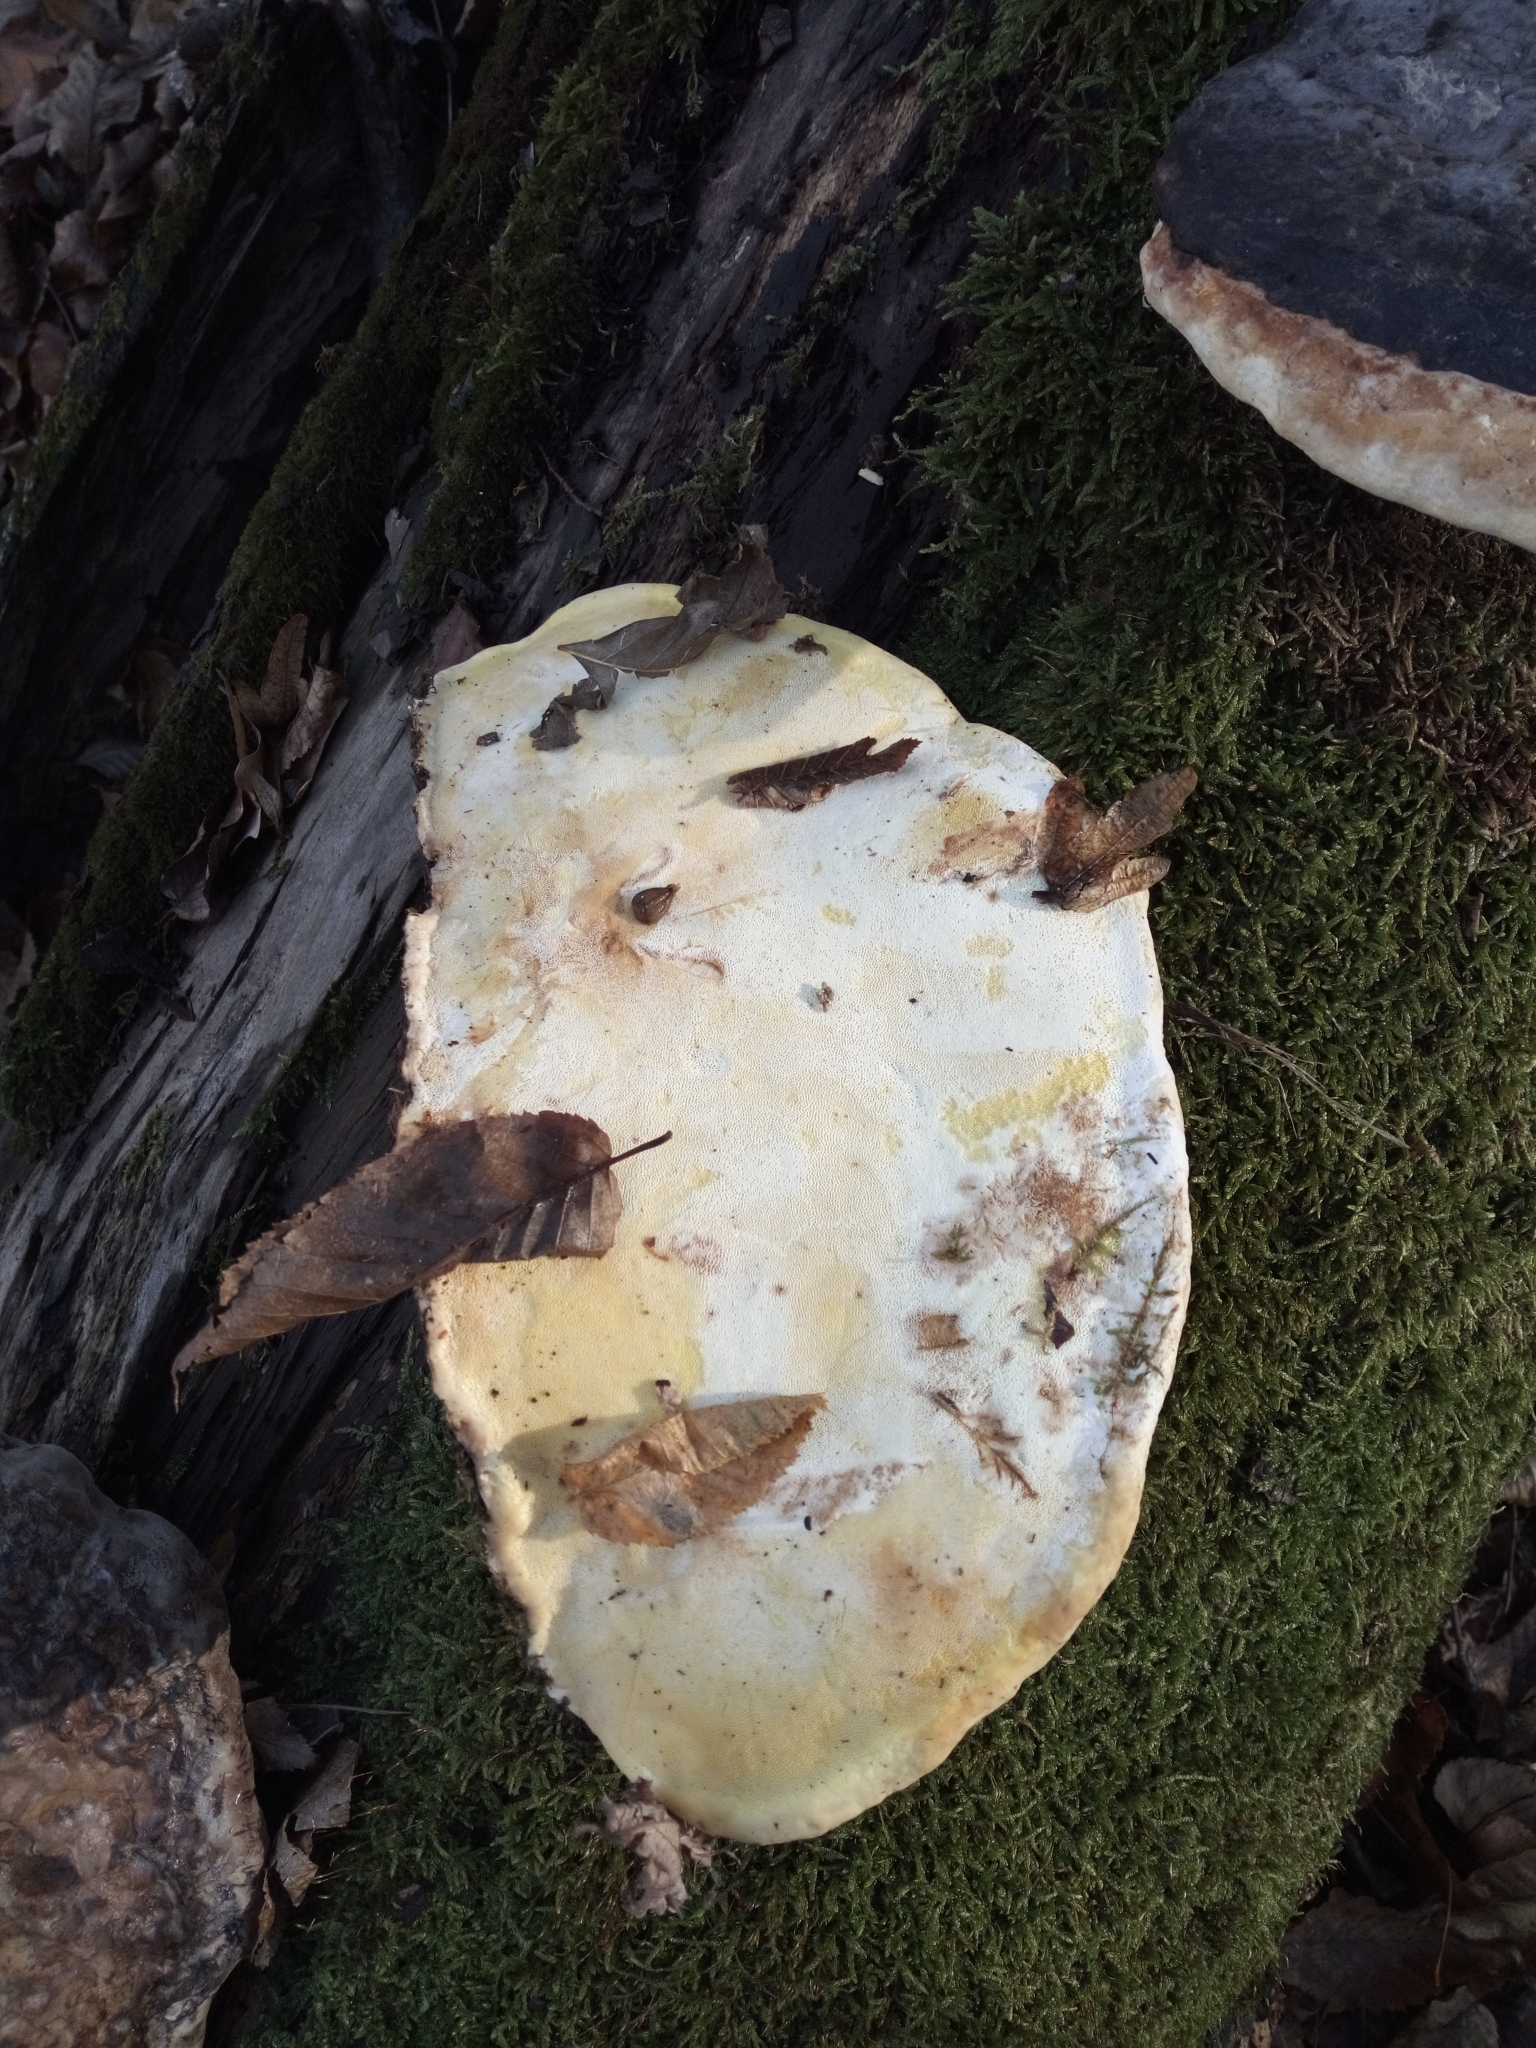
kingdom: Fungi
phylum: Basidiomycota
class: Agaricomycetes
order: Polyporales
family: Fomitopsidaceae
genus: Fomitopsis
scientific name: Fomitopsis pinicola
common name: Red-belted bracket
